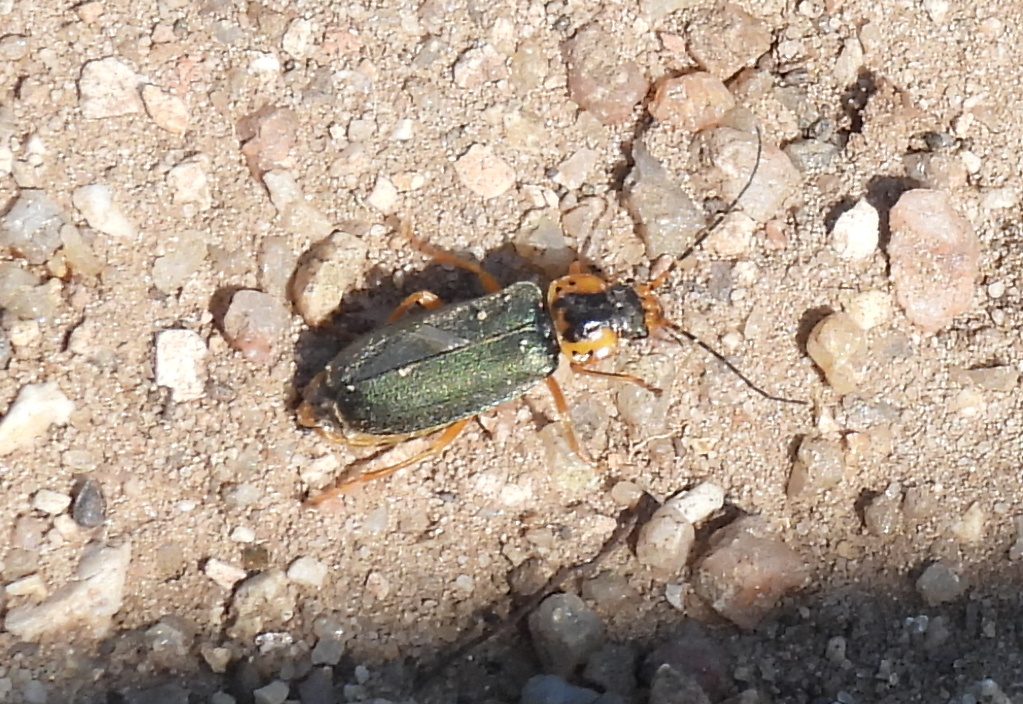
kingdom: Animalia
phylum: Arthropoda
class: Insecta
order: Coleoptera
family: Cantharidae
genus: Afronycha
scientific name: Afronycha
